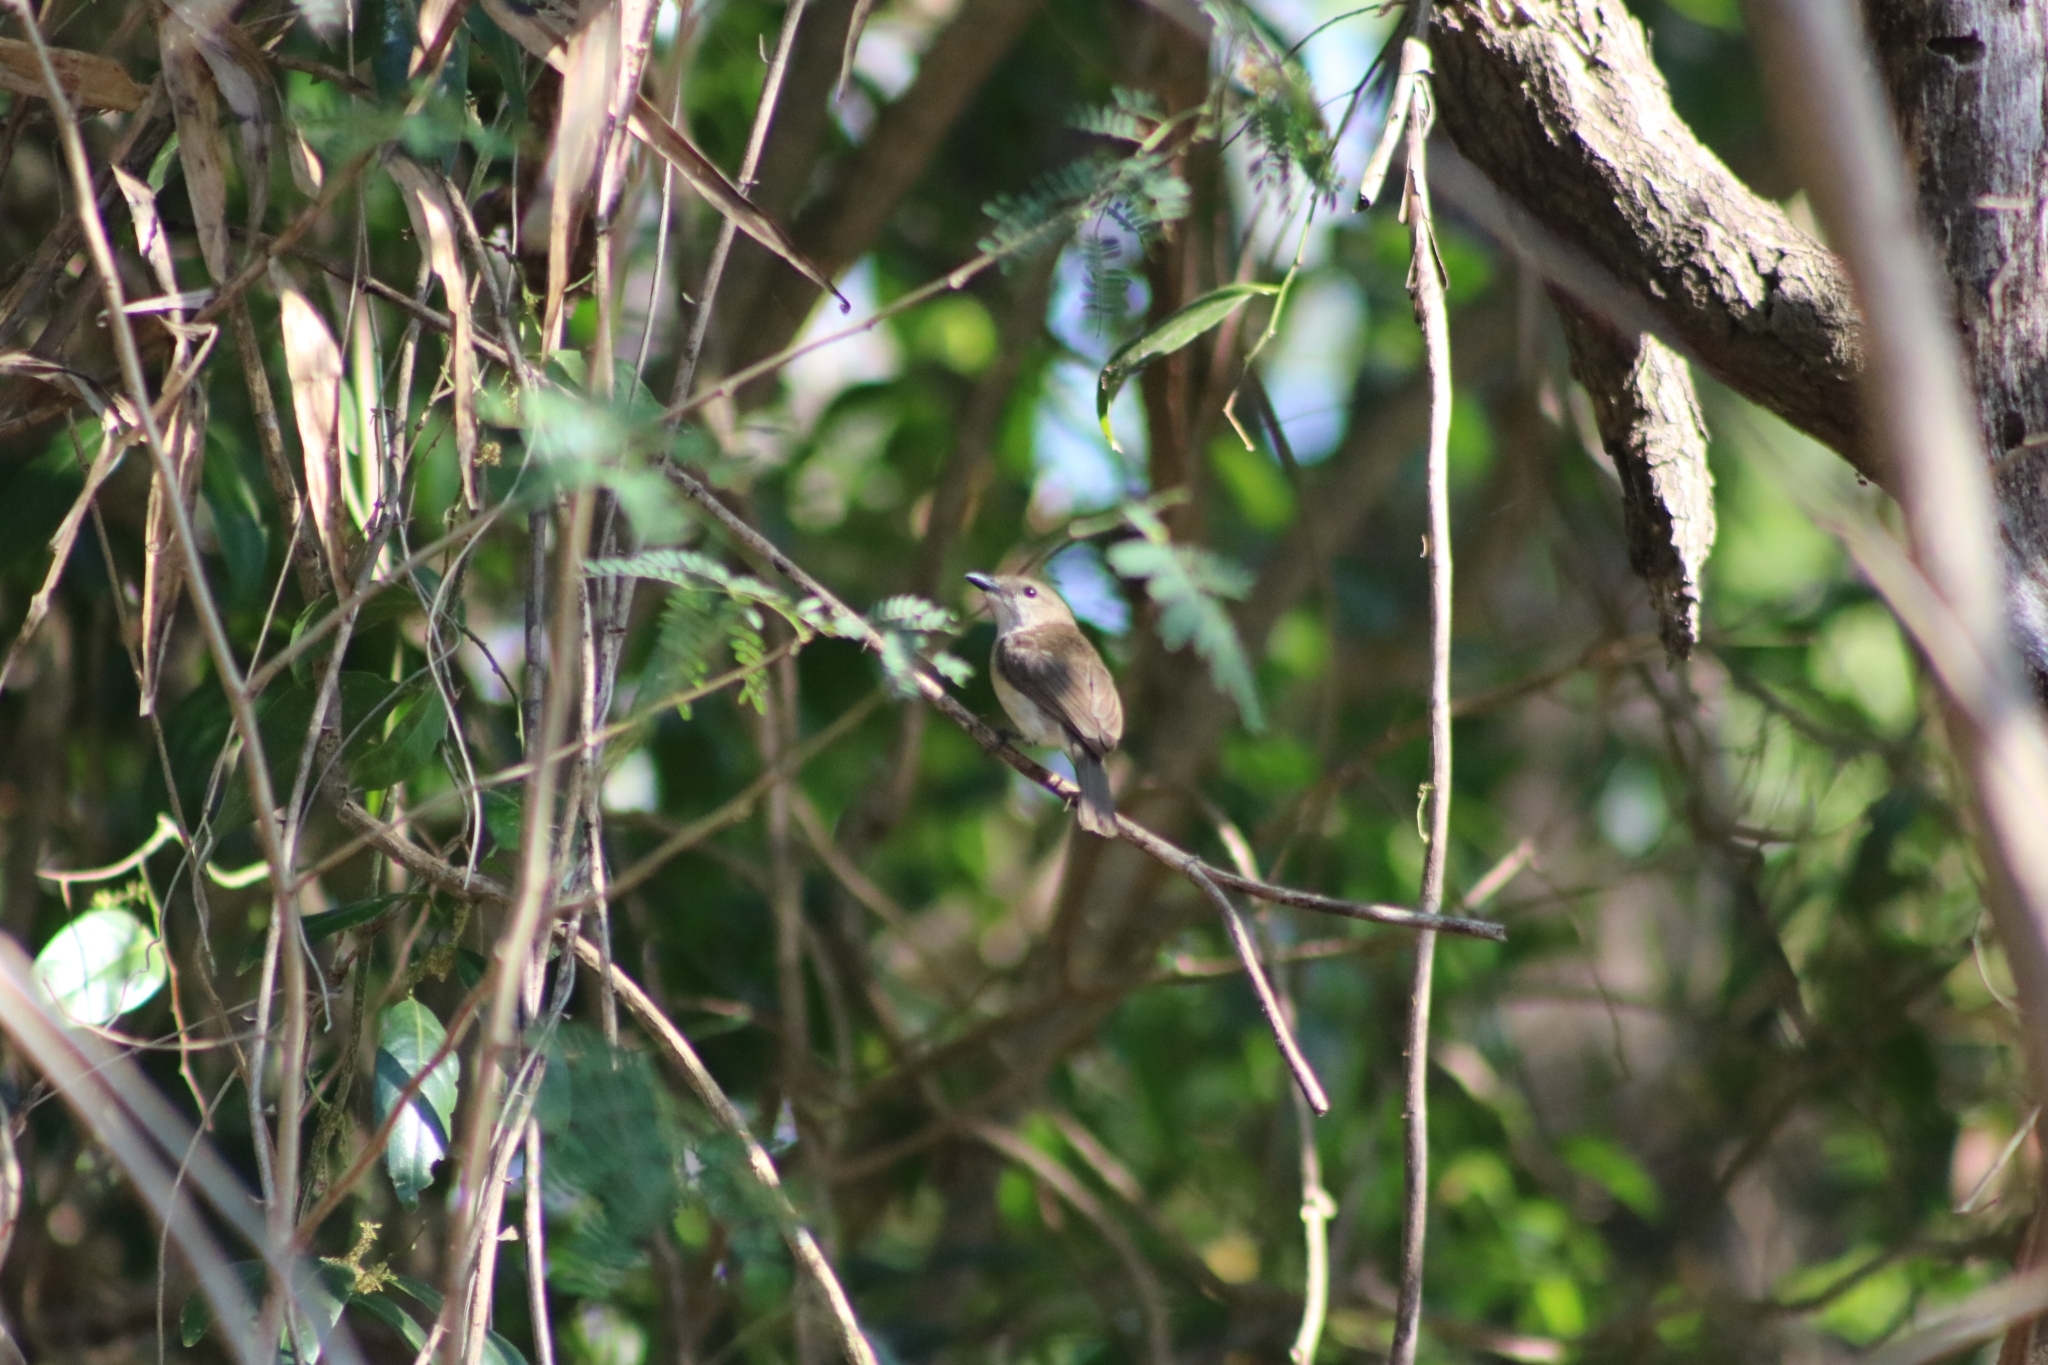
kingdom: Animalia
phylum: Chordata
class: Aves
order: Passeriformes
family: Pachycephalidae
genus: Pachycephala
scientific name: Pachycephala simplex
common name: Grey whistler
